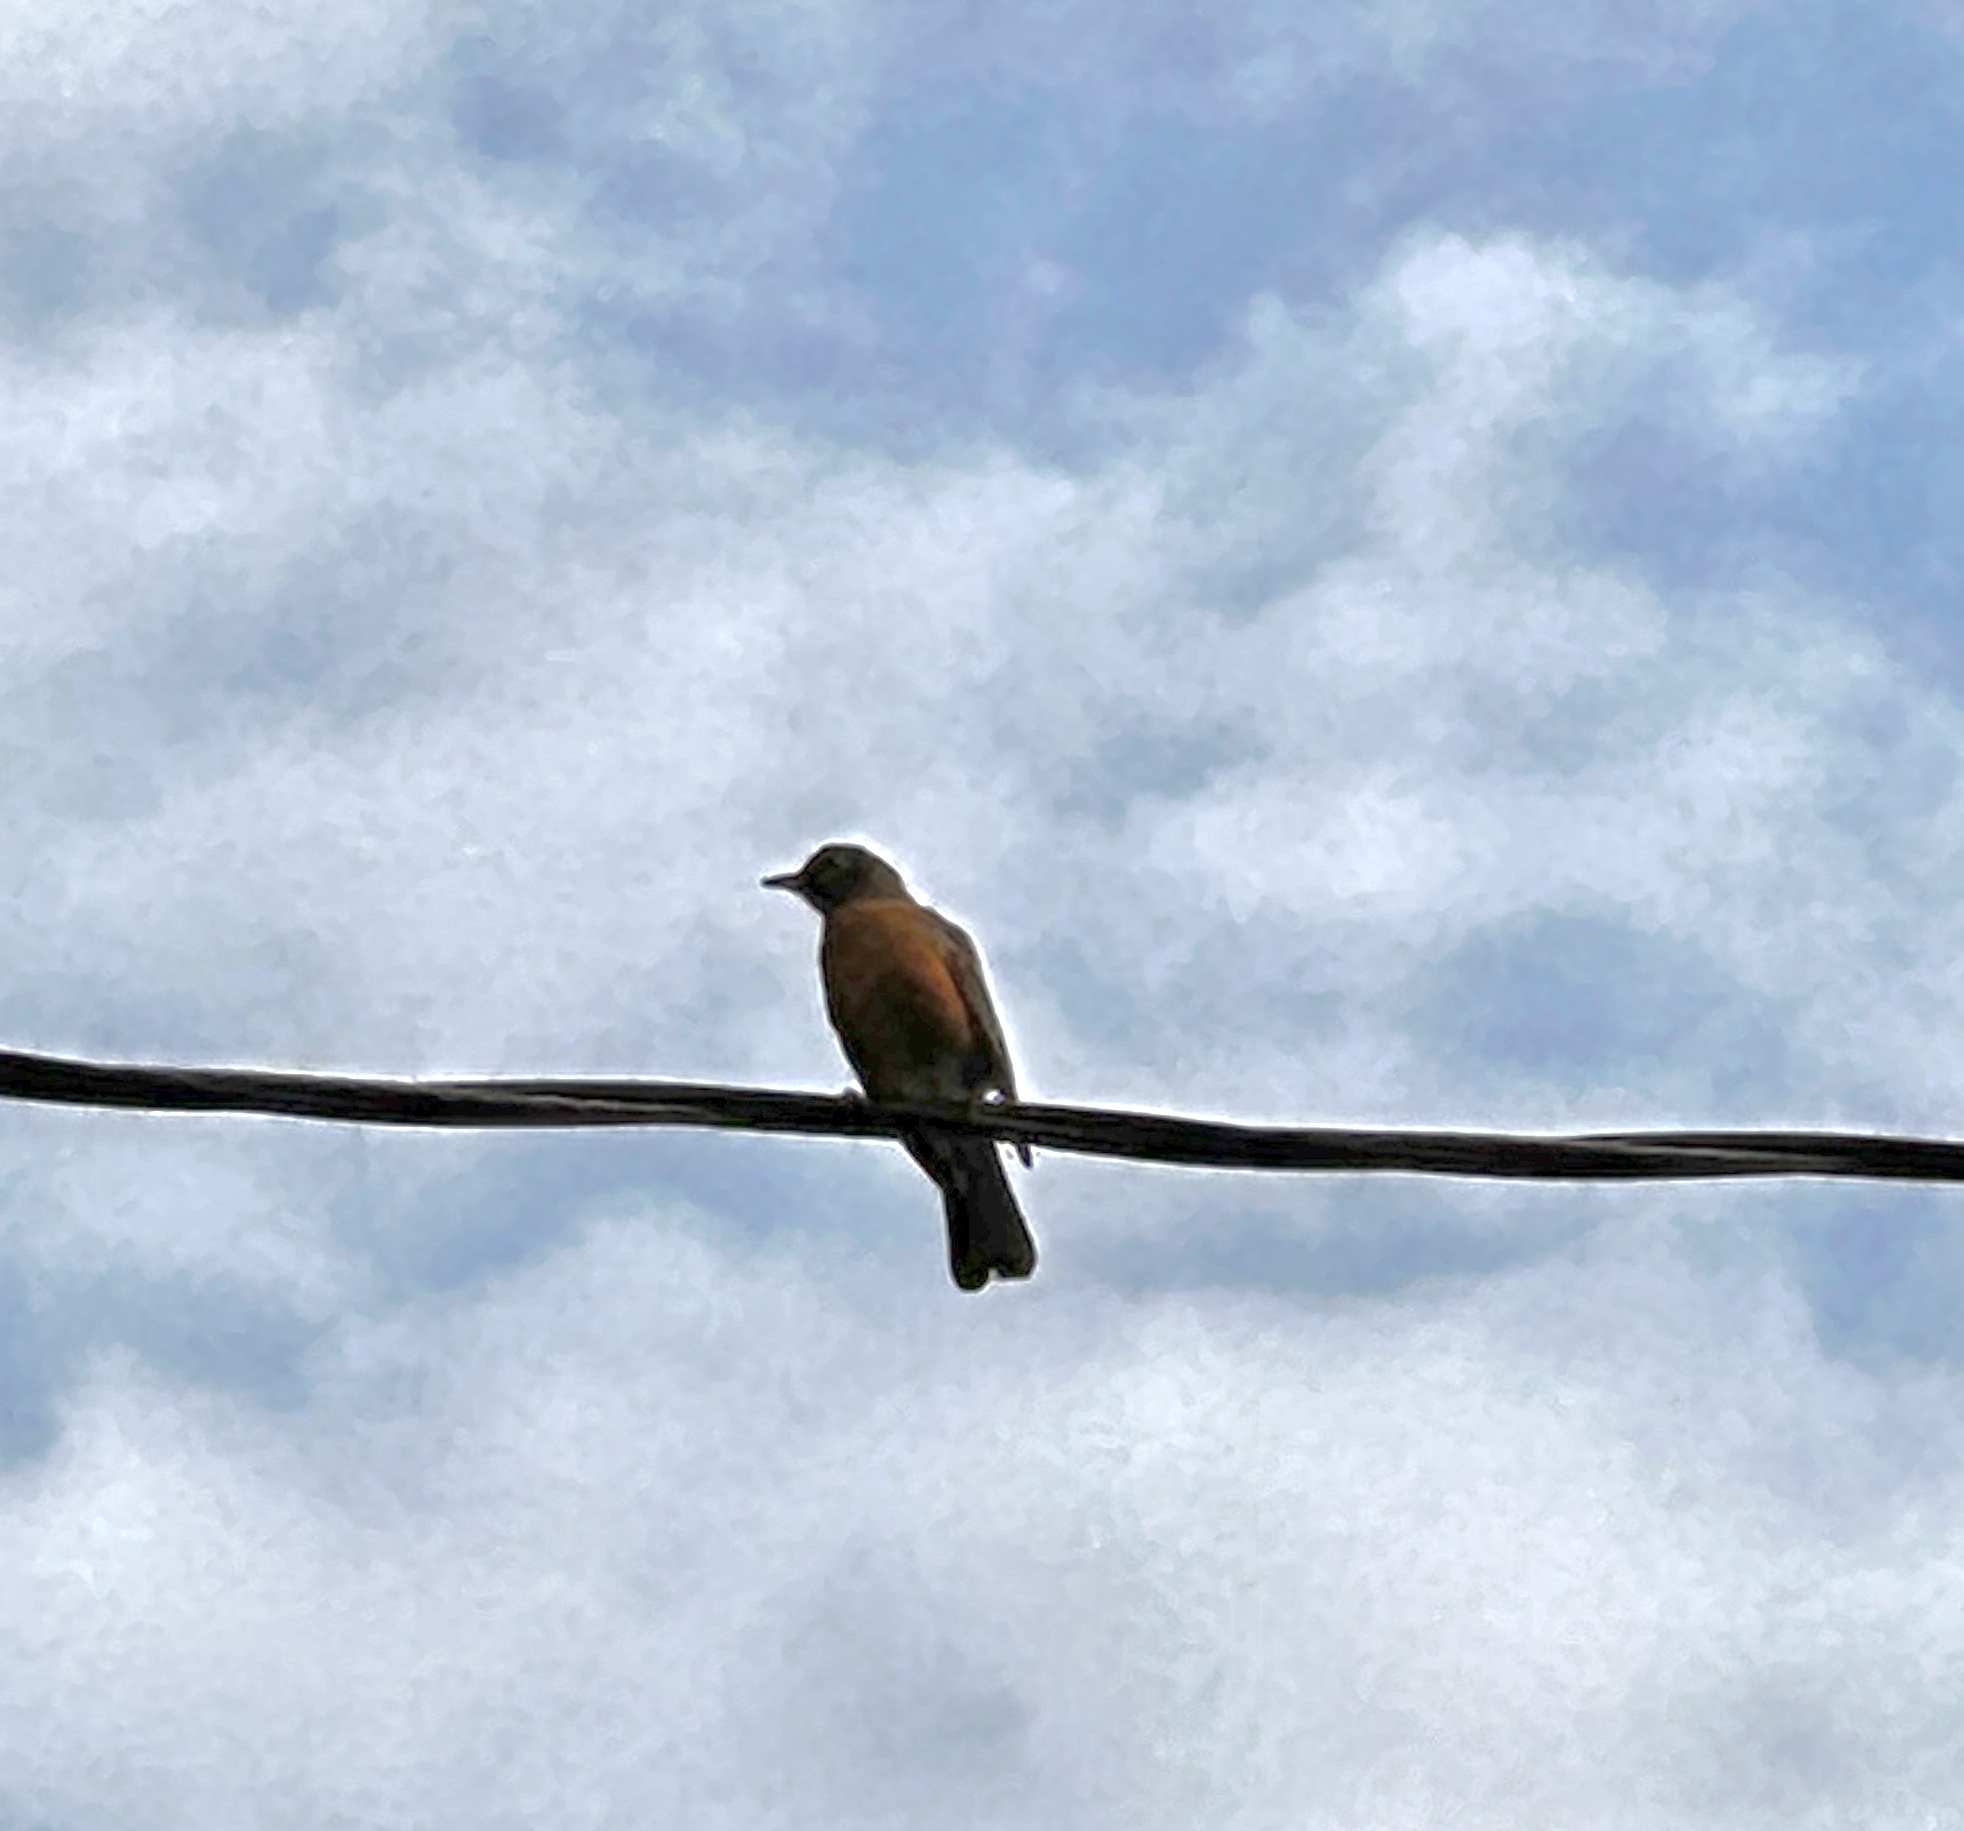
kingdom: Animalia
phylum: Chordata
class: Aves
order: Passeriformes
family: Turdidae
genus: Turdus
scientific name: Turdus migratorius
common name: American robin
